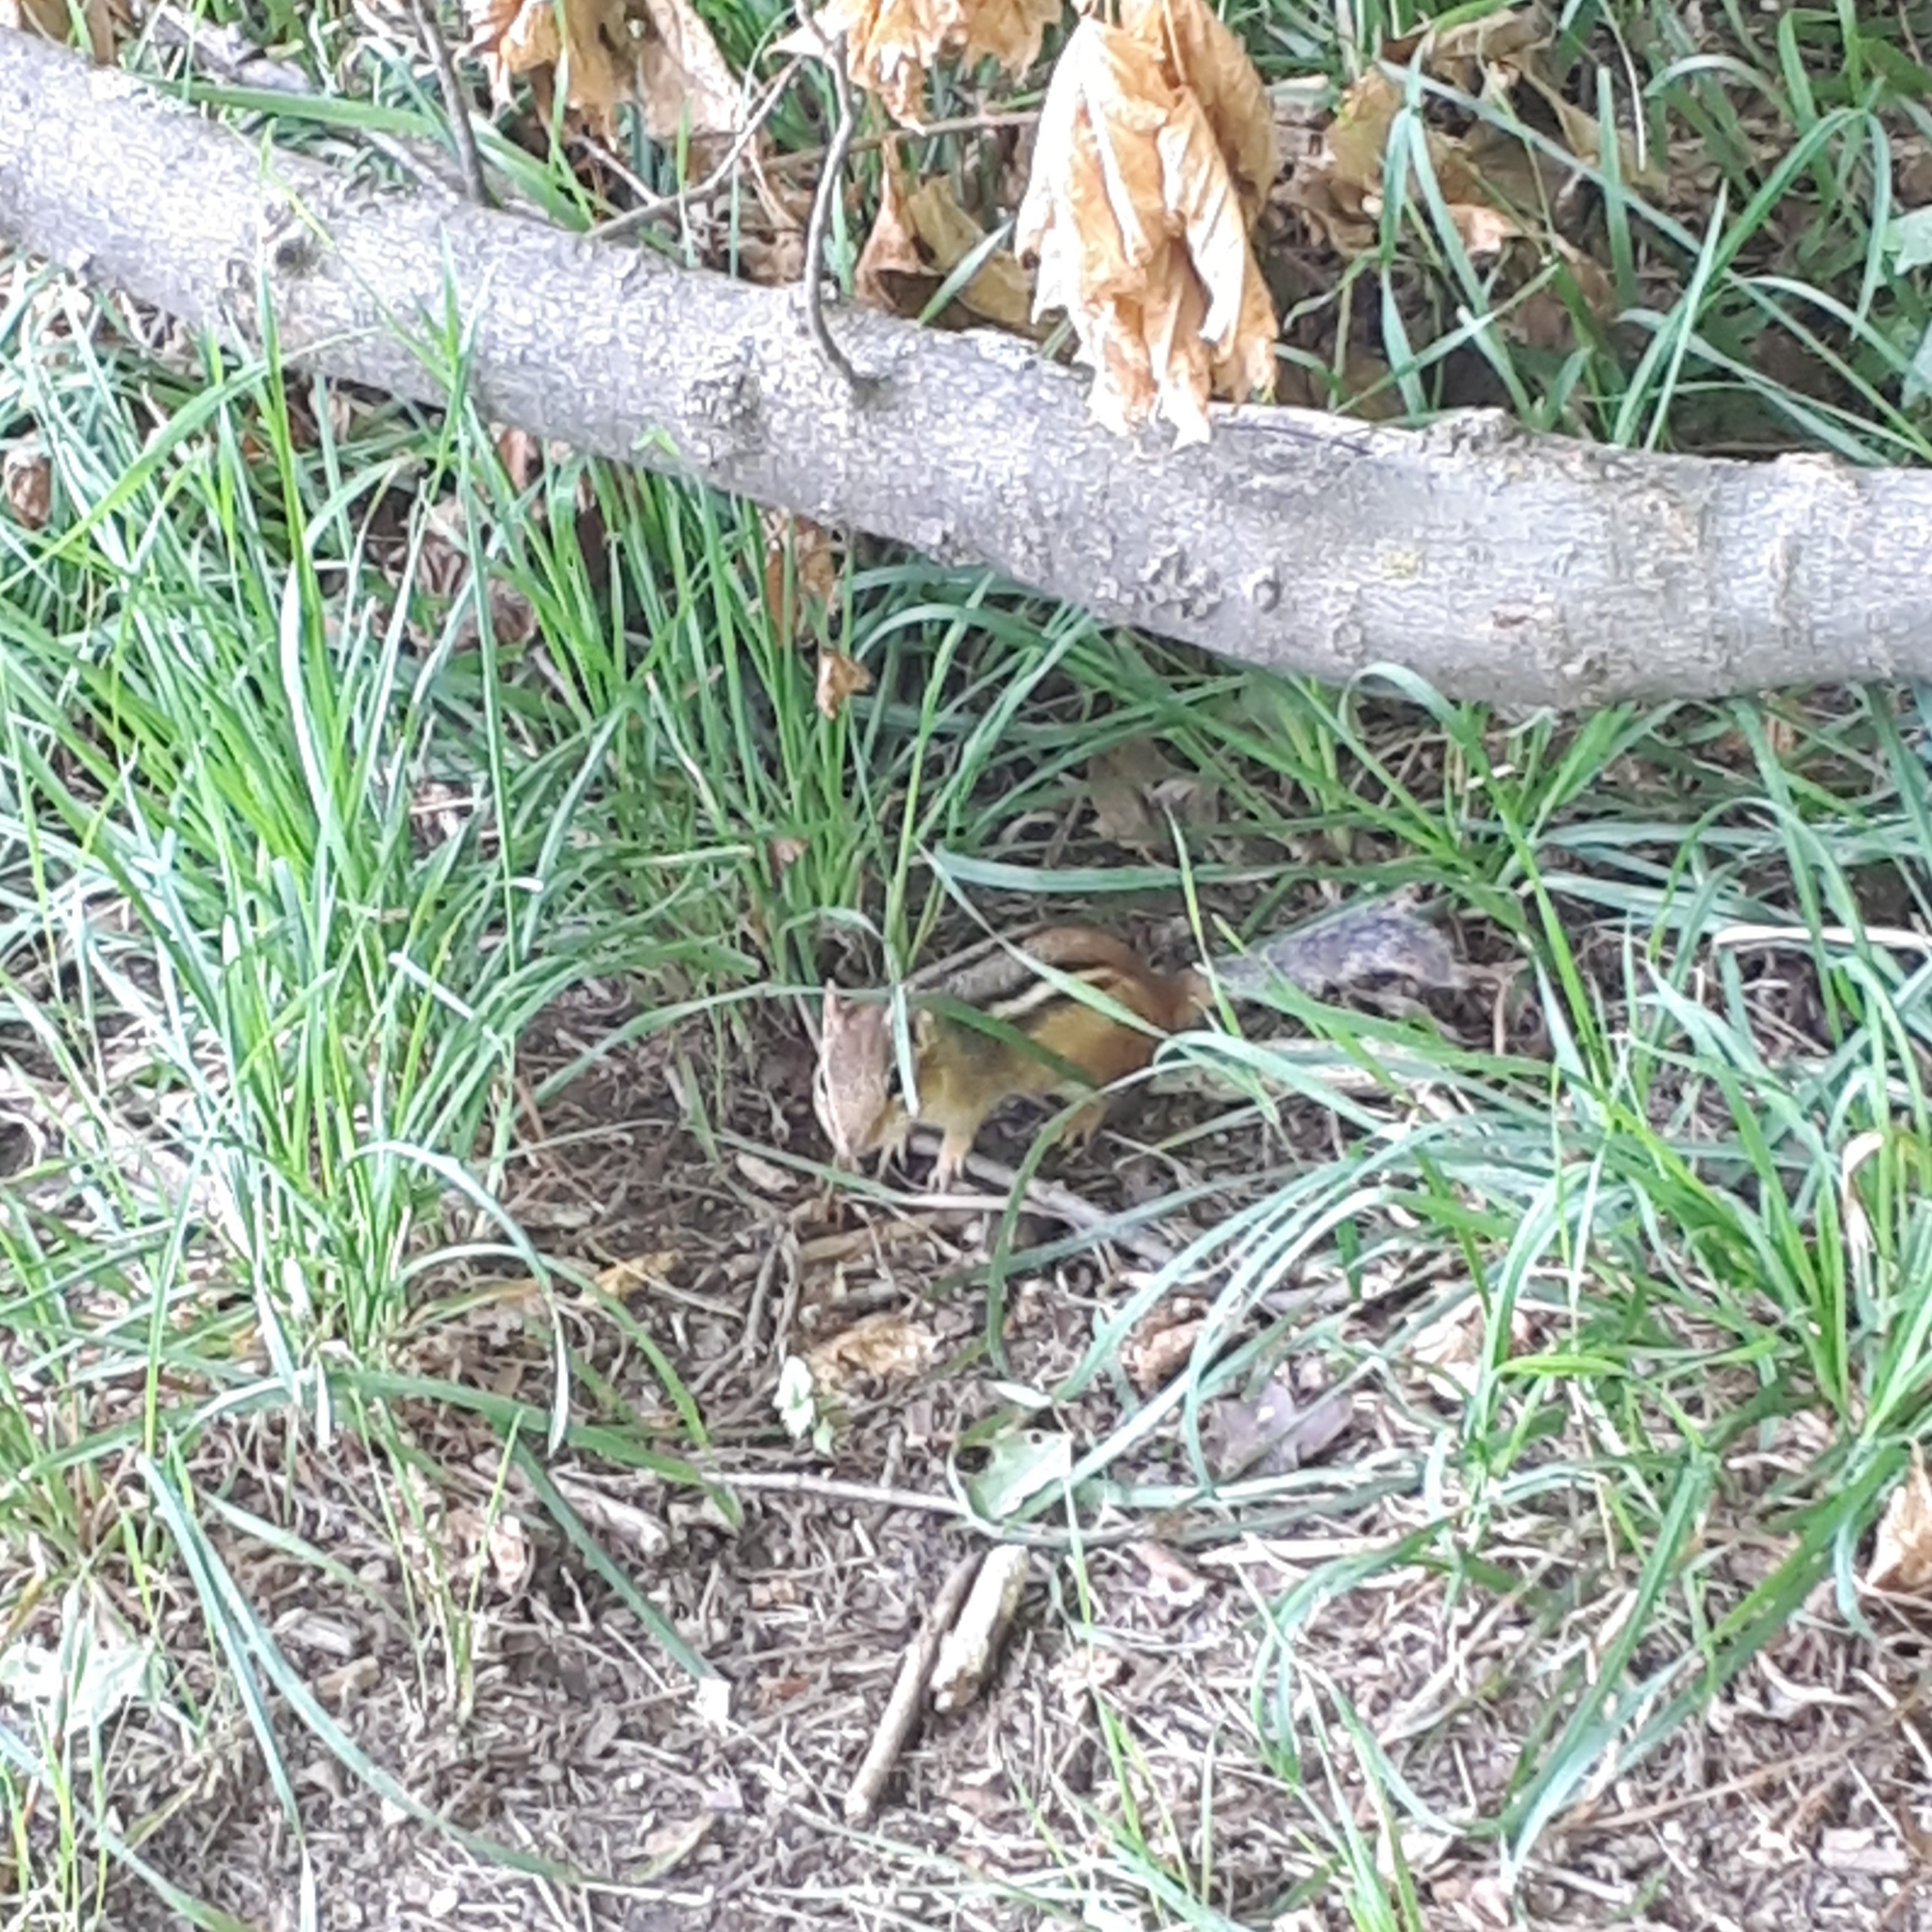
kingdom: Animalia
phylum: Chordata
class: Mammalia
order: Rodentia
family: Sciuridae
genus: Tamias
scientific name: Tamias striatus
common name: Eastern chipmunk
